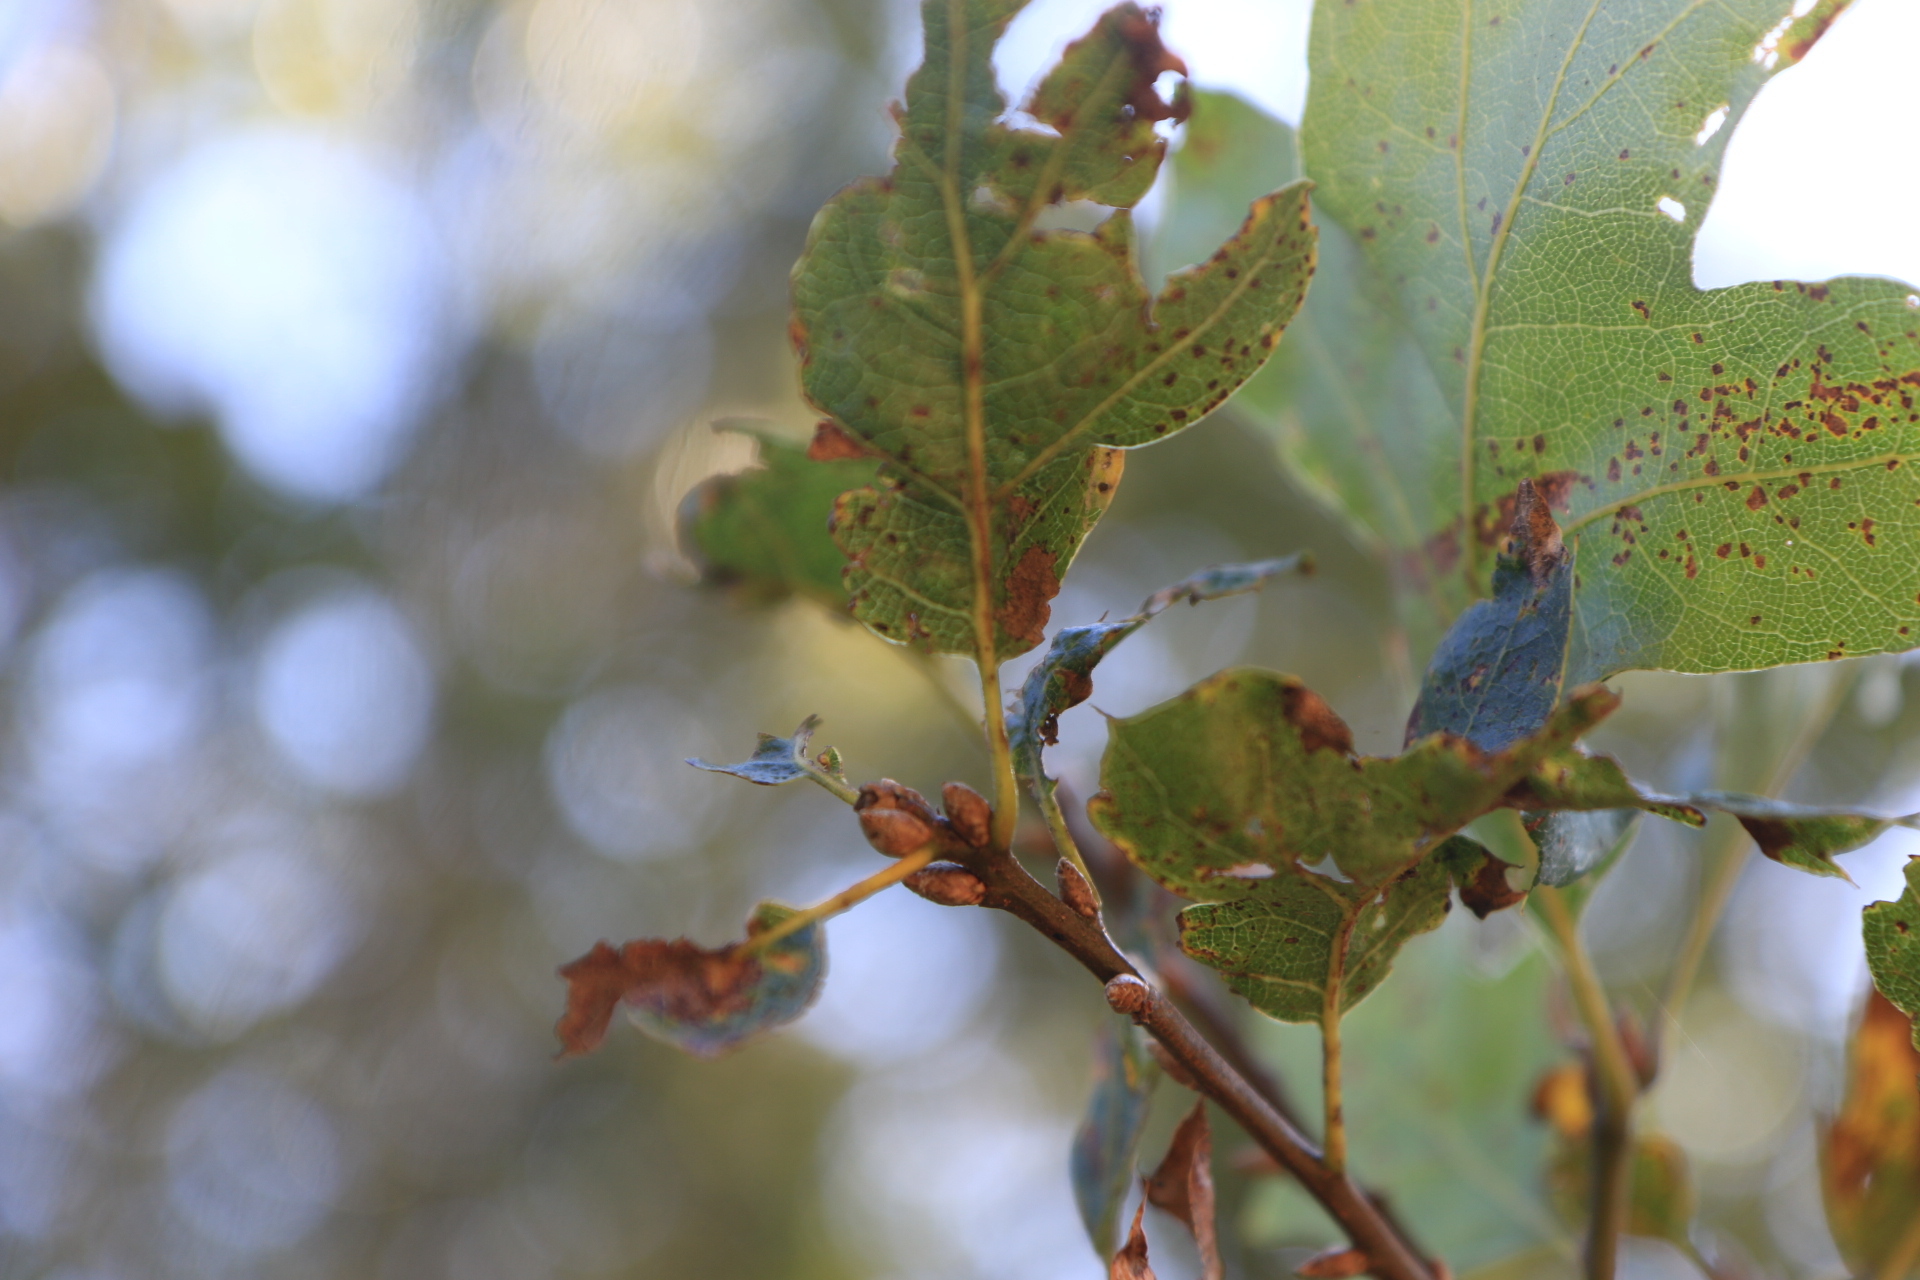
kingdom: Plantae
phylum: Tracheophyta
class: Magnoliopsida
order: Fagales
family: Fagaceae
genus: Quercus
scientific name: Quercus kelloggii
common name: California black oak
